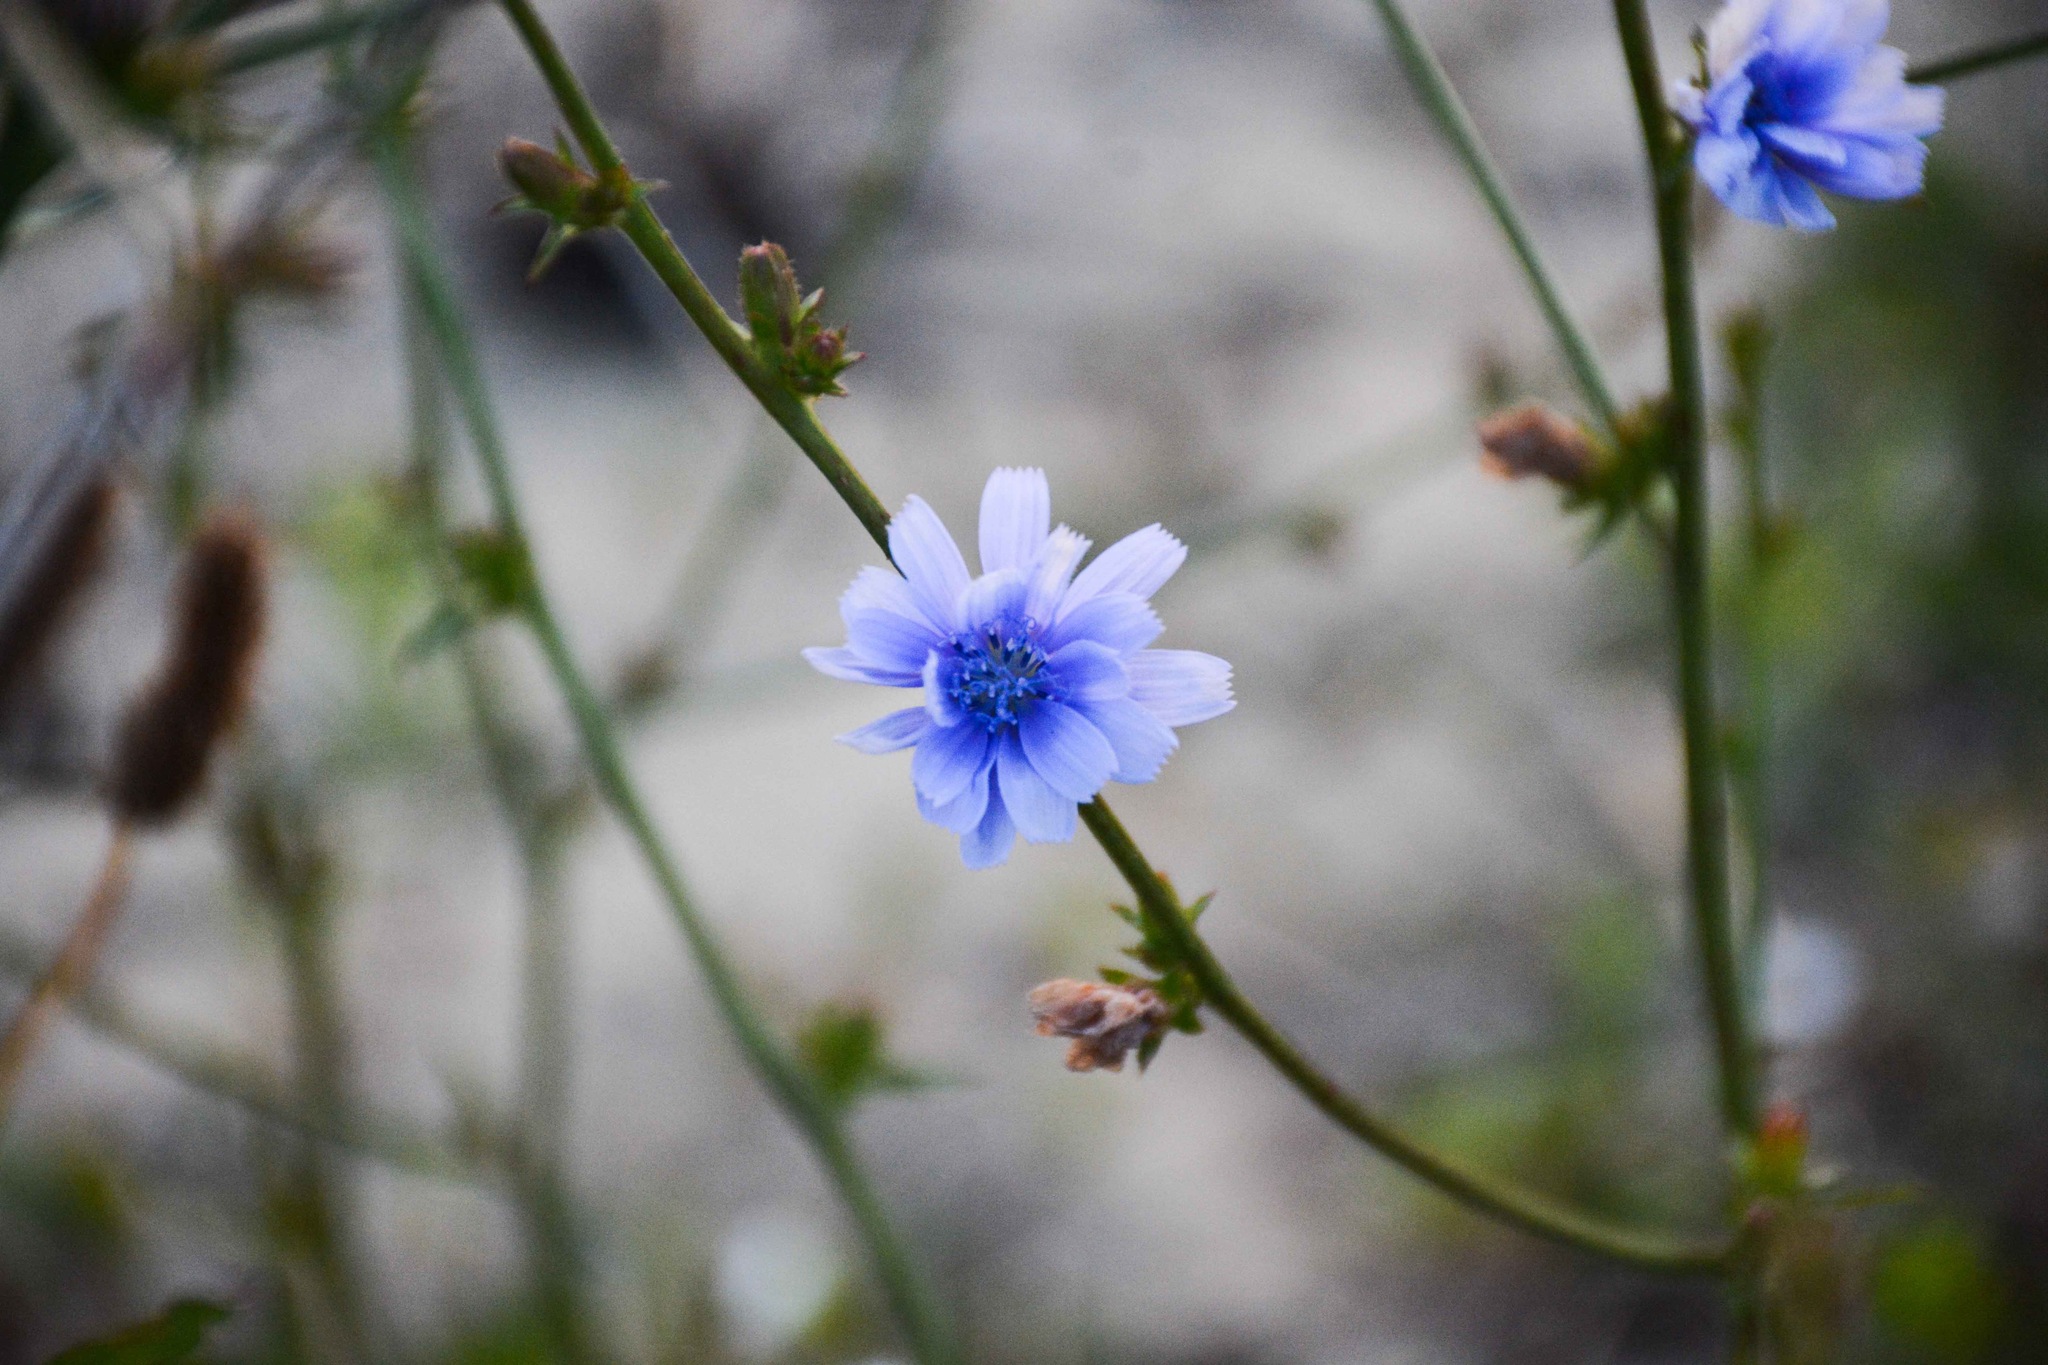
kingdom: Plantae
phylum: Tracheophyta
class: Magnoliopsida
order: Asterales
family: Asteraceae
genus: Cichorium
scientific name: Cichorium intybus
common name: Chicory
